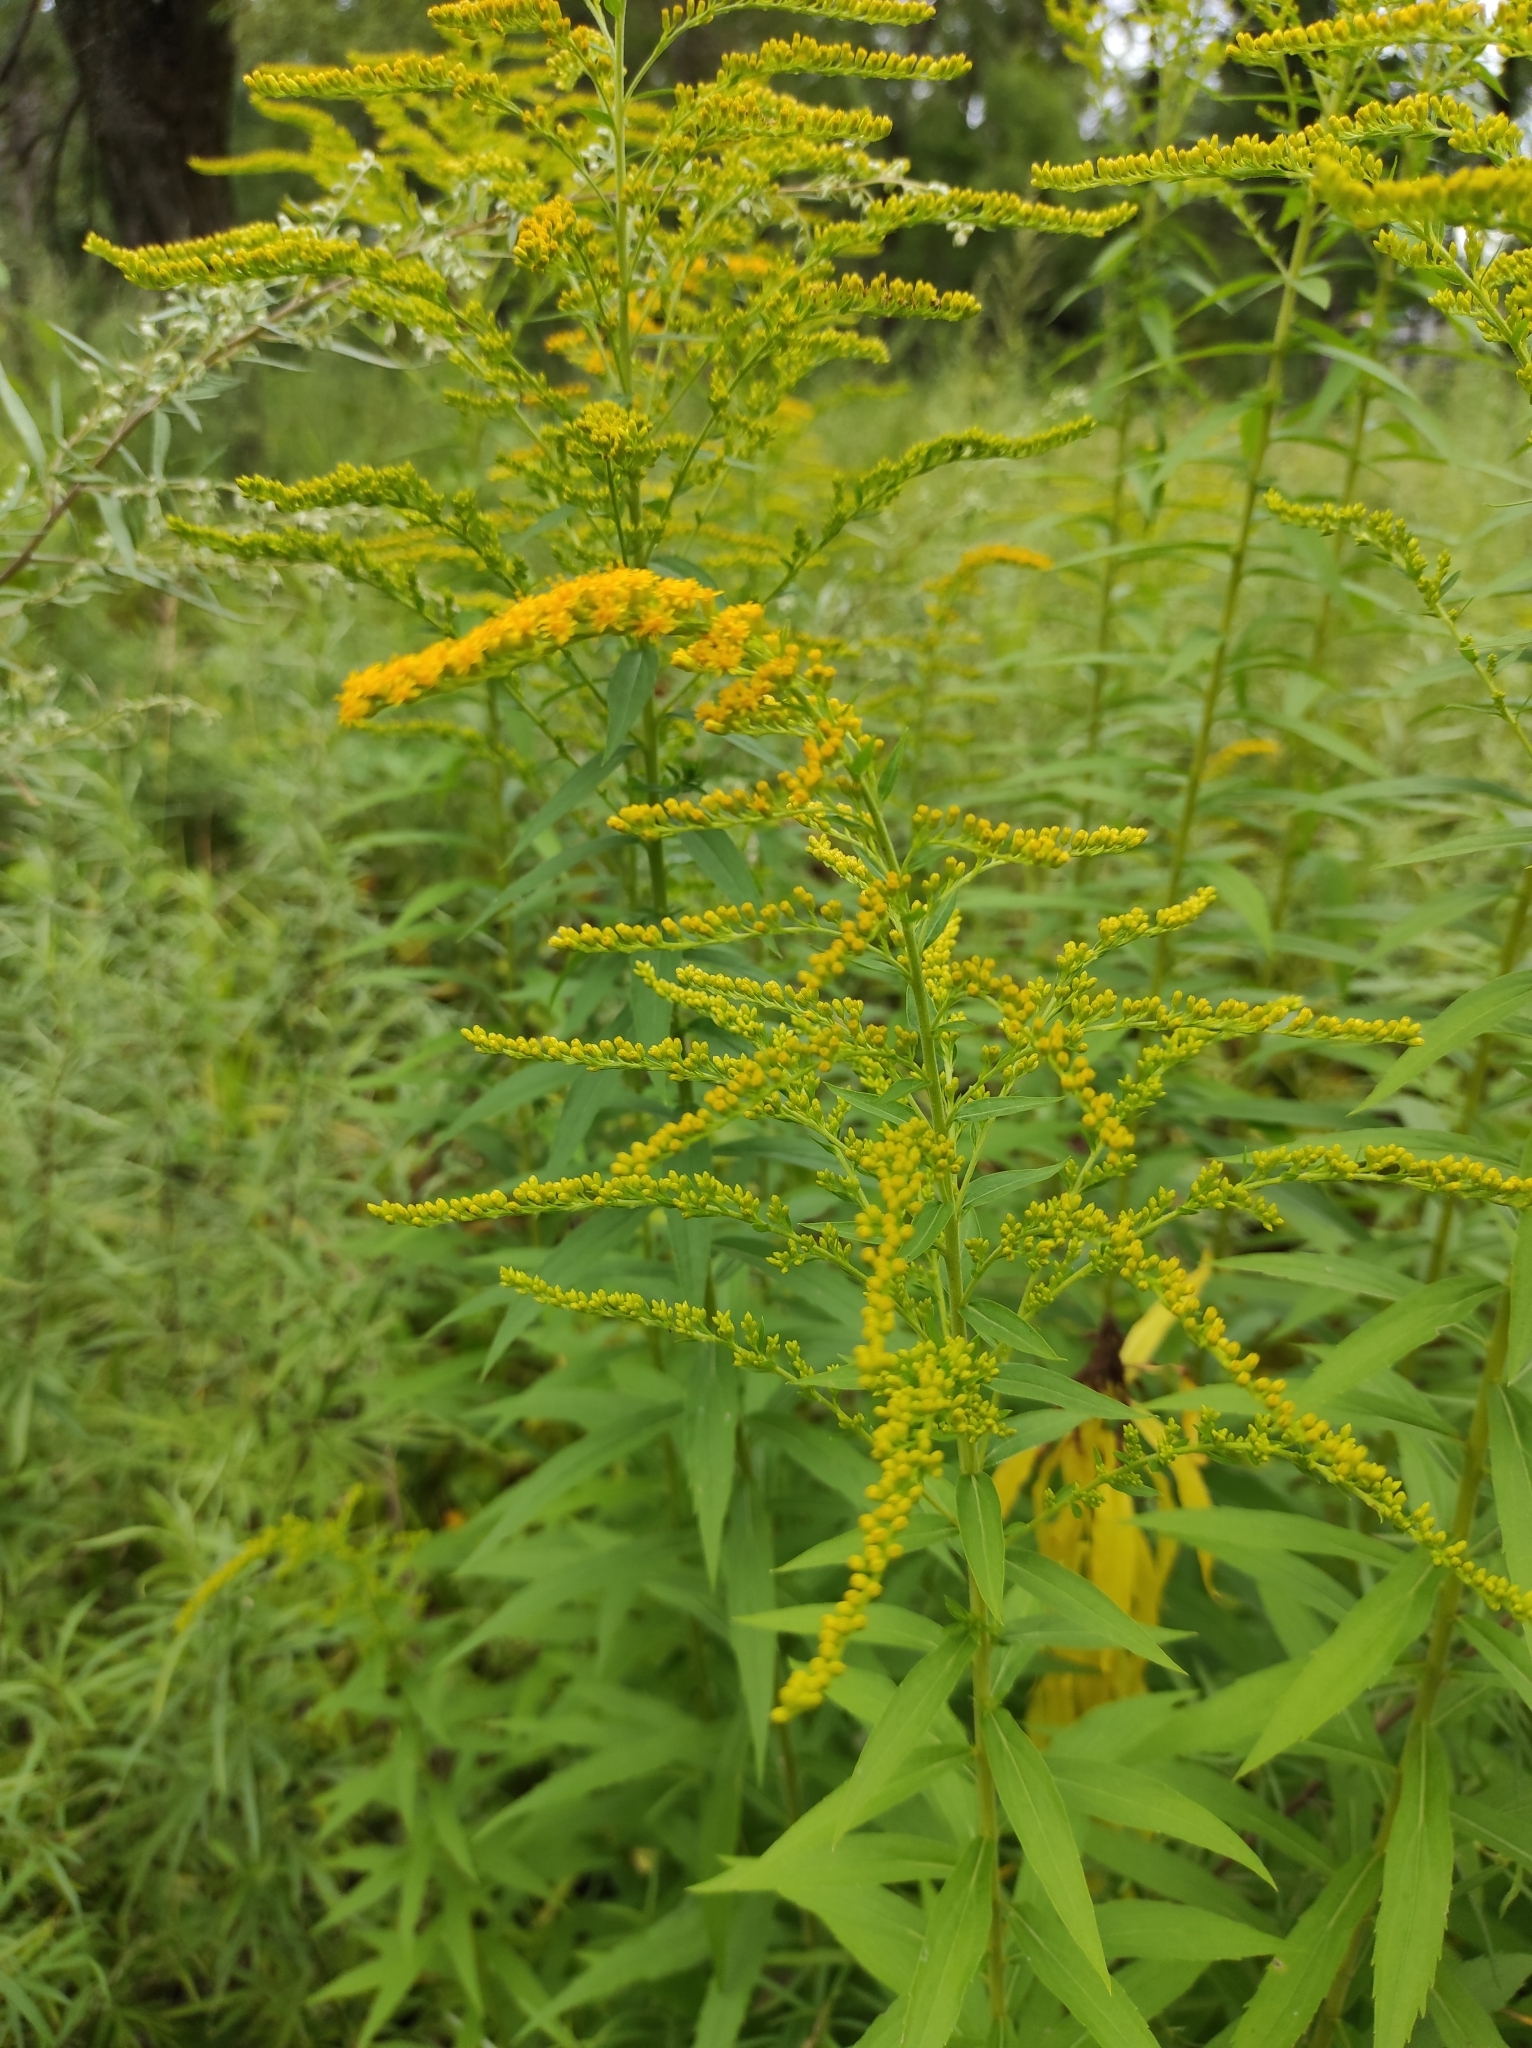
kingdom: Plantae
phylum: Tracheophyta
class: Magnoliopsida
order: Asterales
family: Asteraceae
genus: Solidago
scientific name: Solidago canadensis
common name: Canada goldenrod
